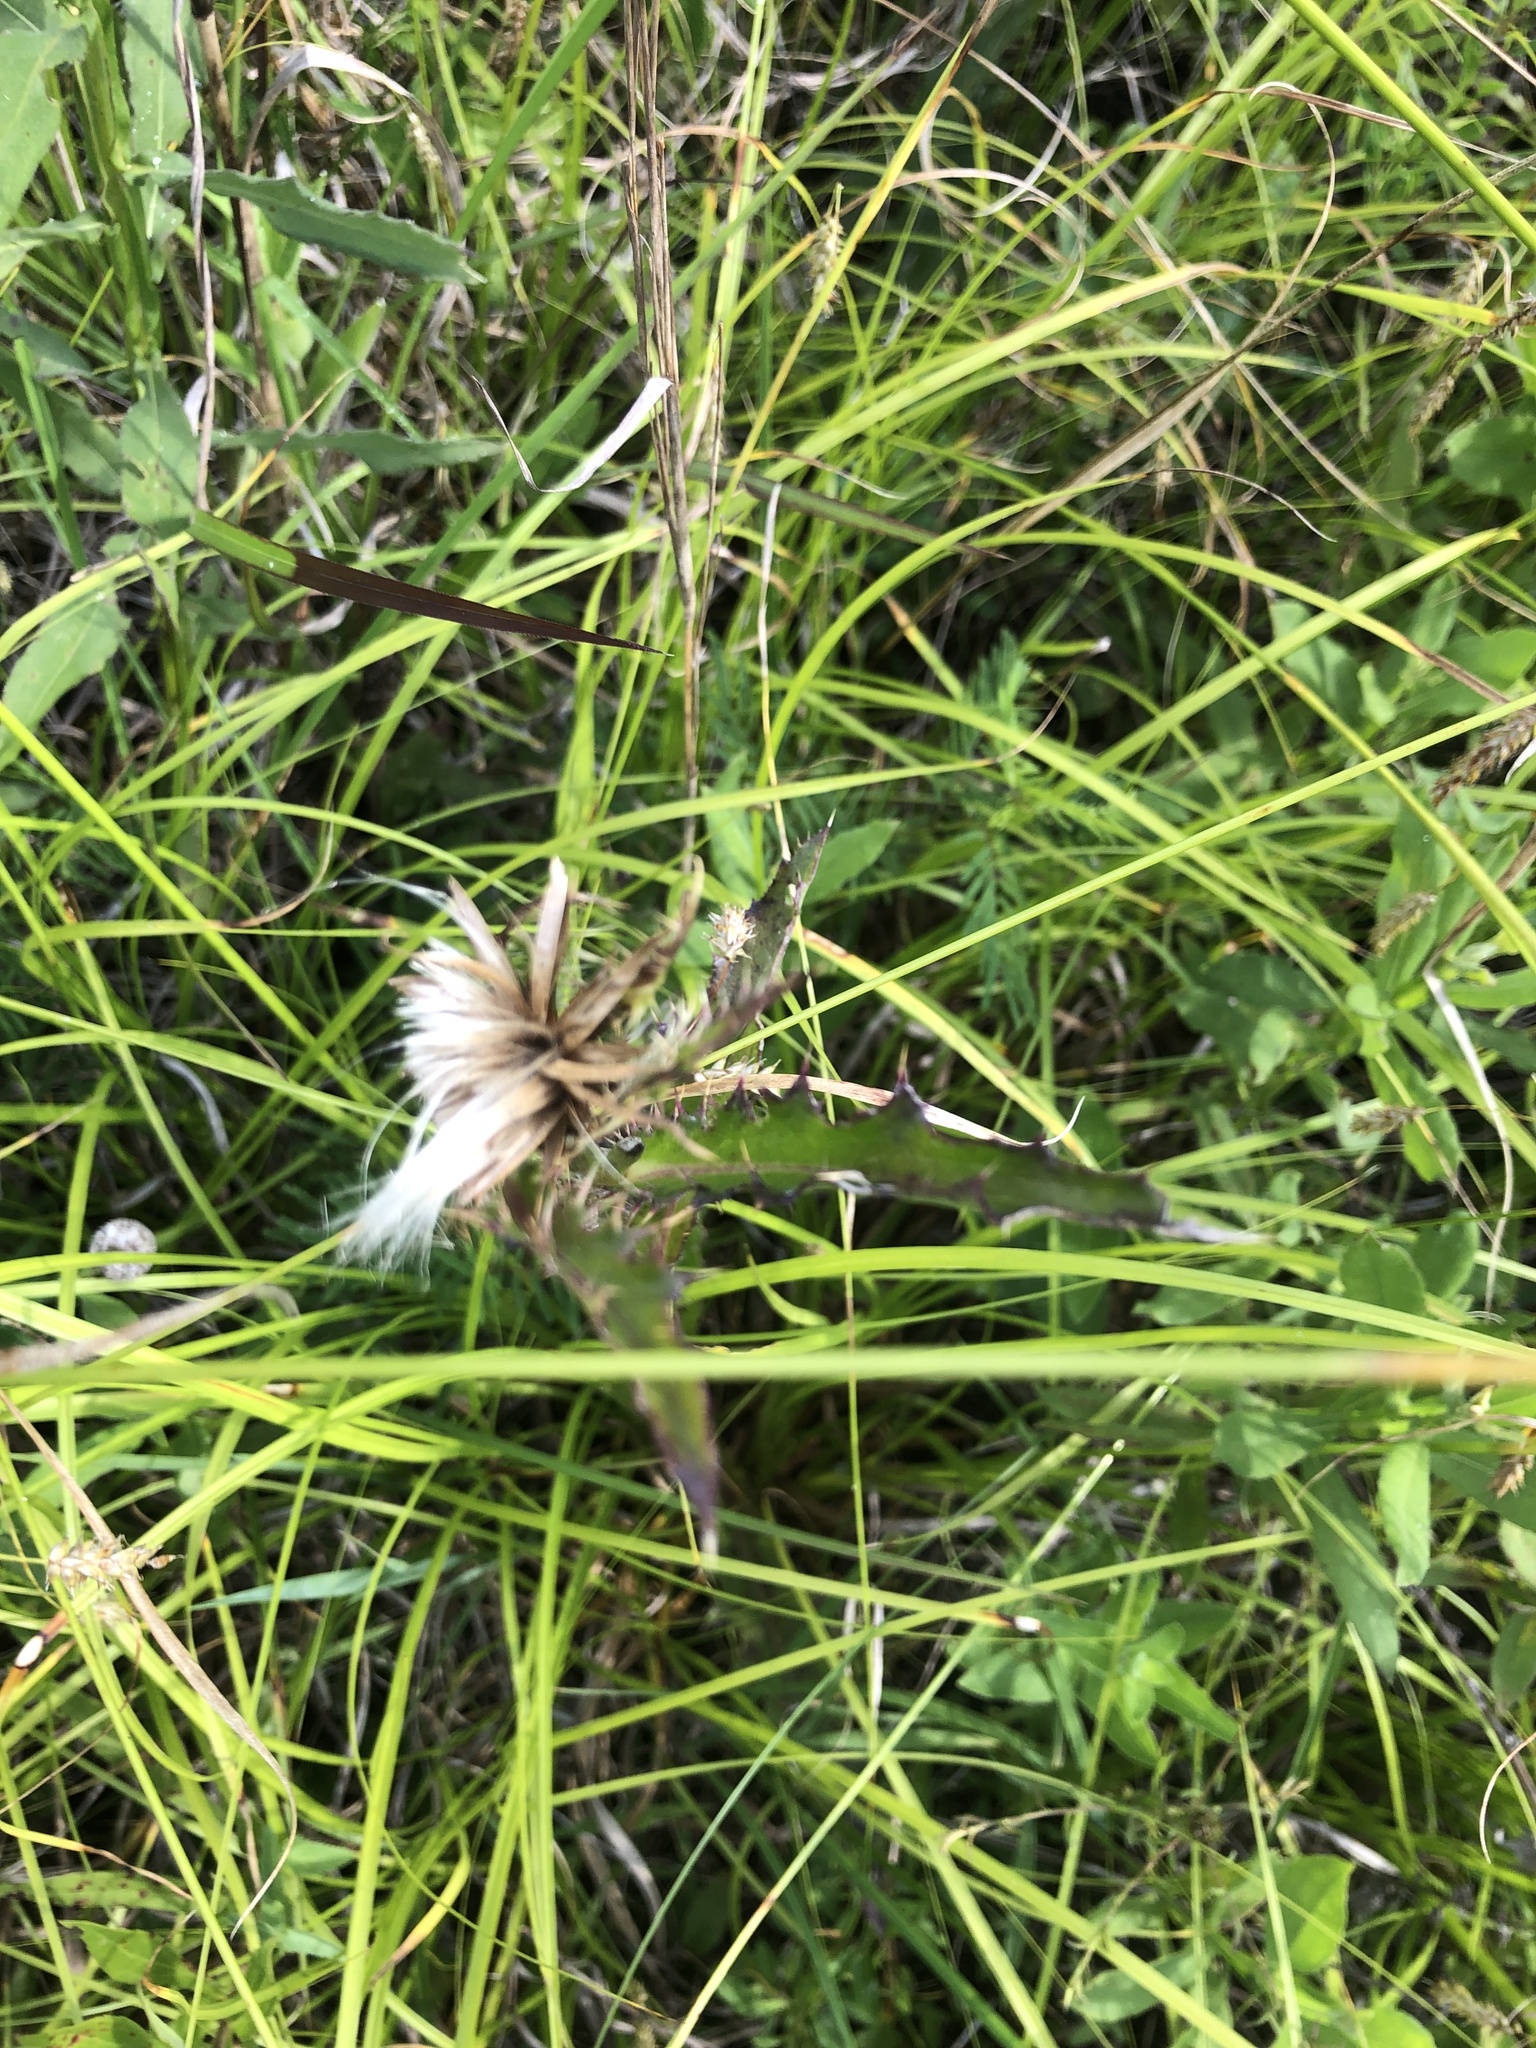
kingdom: Plantae
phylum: Tracheophyta
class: Magnoliopsida
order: Asterales
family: Asteraceae
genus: Cirsium
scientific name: Cirsium horridulum
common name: Bristly thistle
